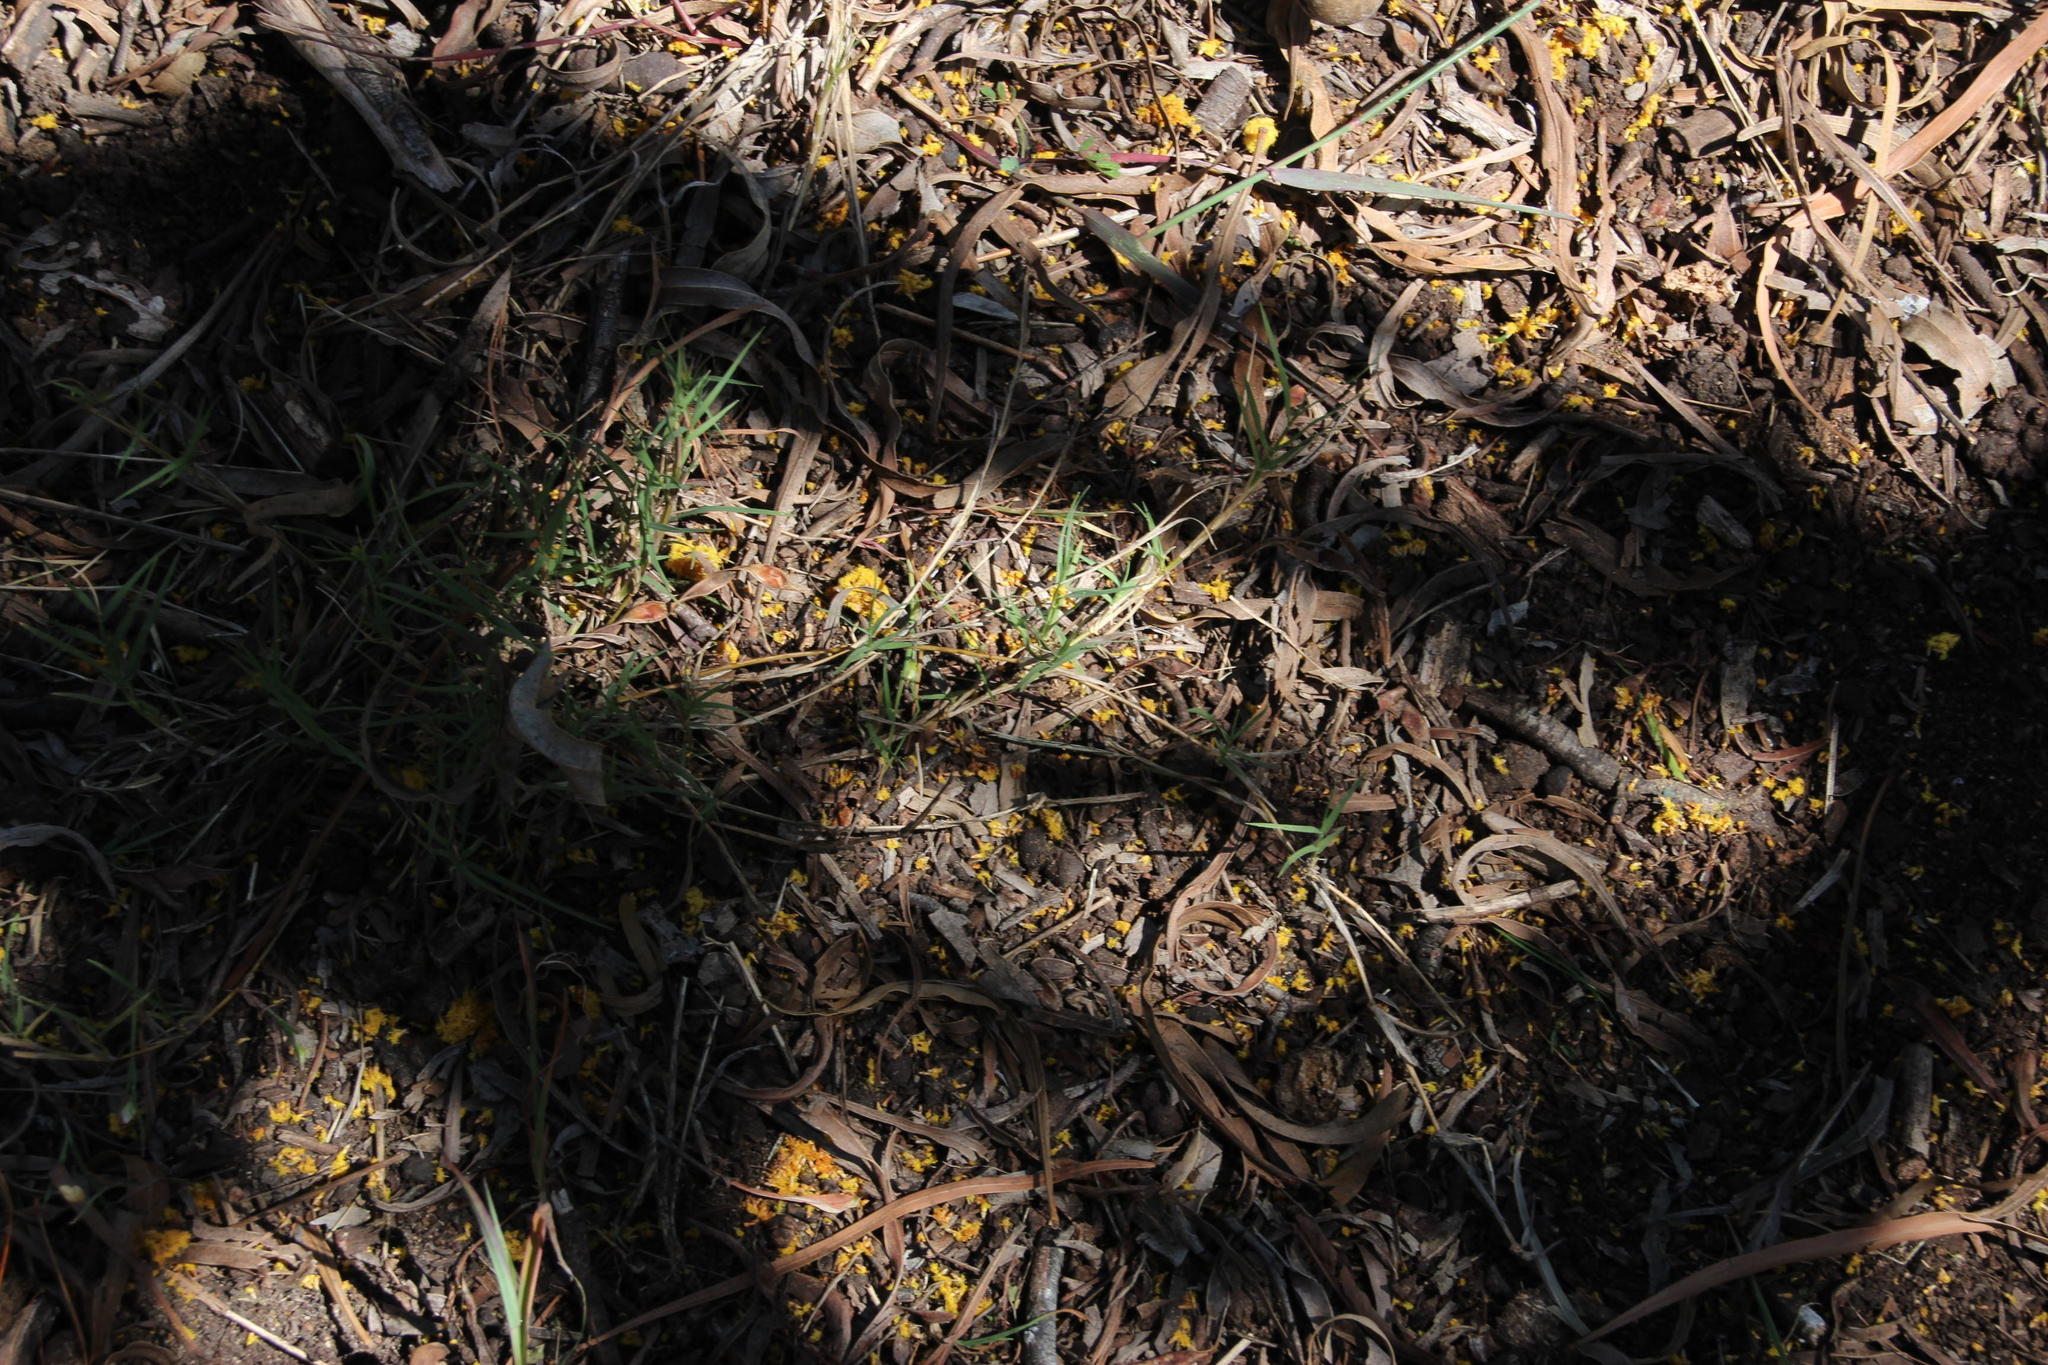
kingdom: Plantae
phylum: Tracheophyta
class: Liliopsida
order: Poales
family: Poaceae
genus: Cynodon
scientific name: Cynodon dactylon
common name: Bermuda grass
